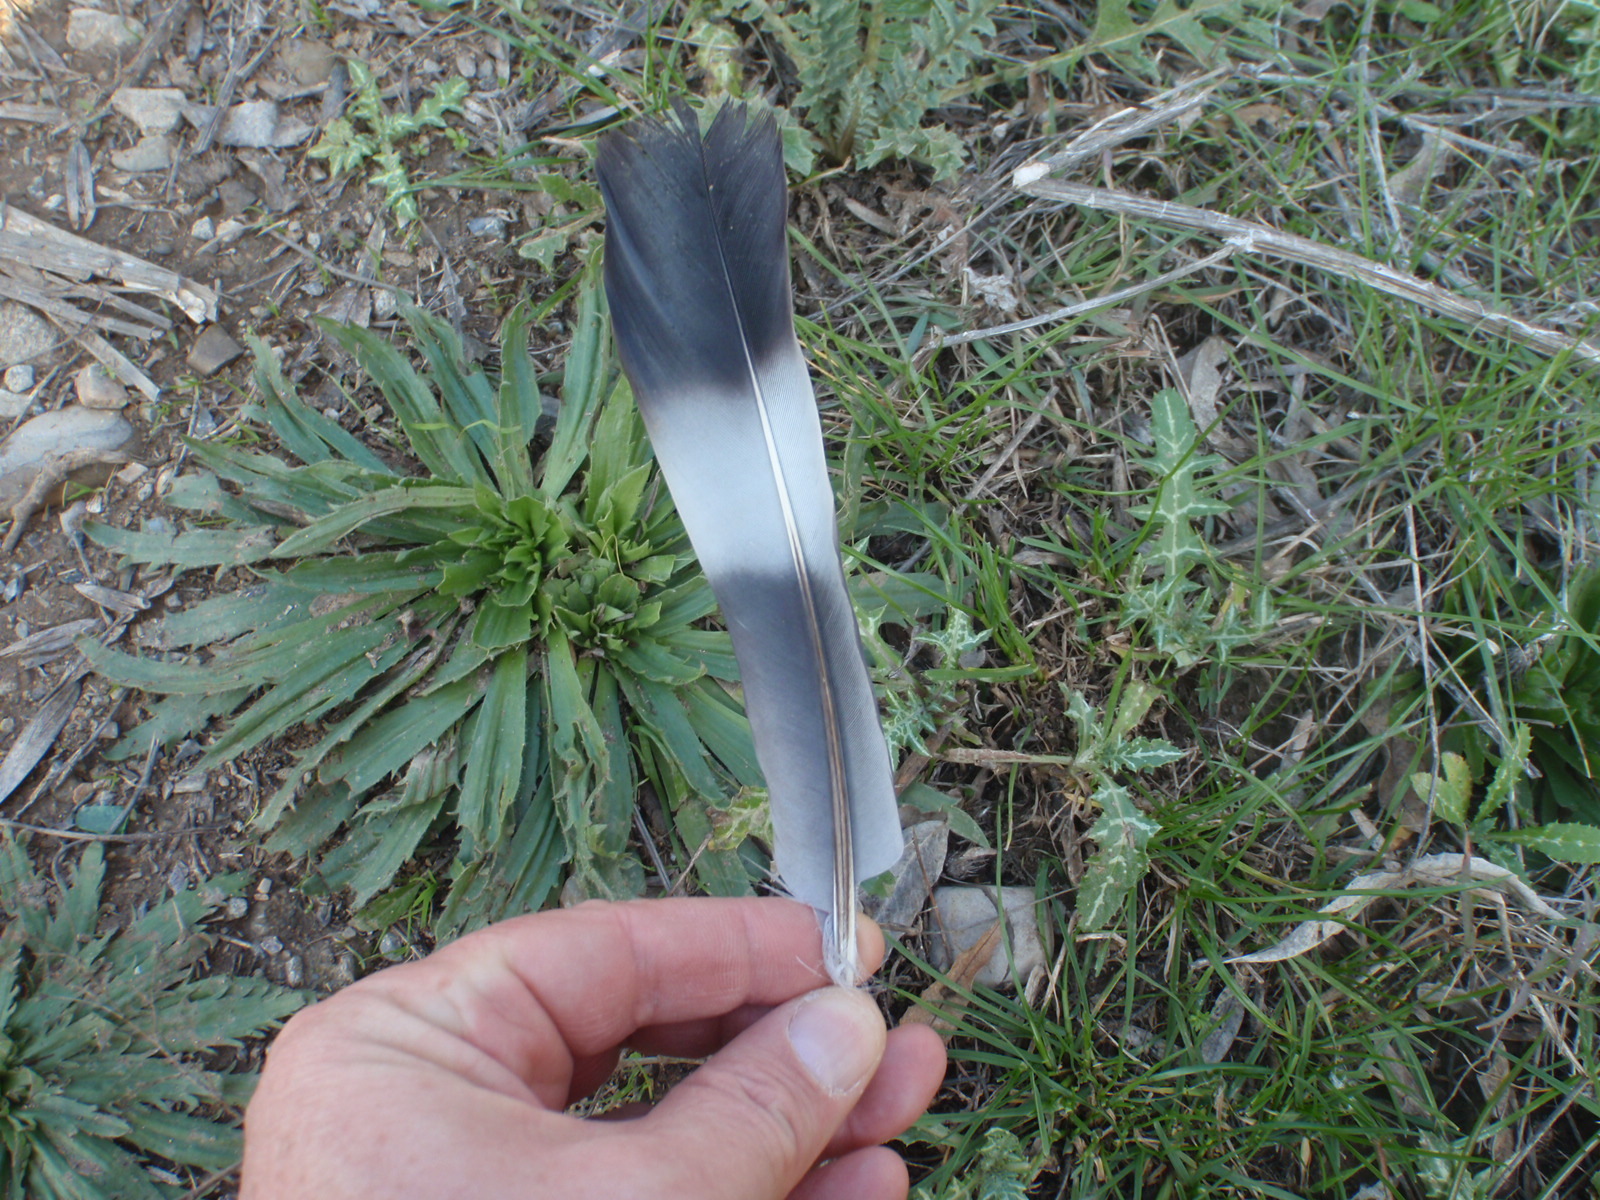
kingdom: Animalia
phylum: Chordata
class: Aves
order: Columbiformes
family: Columbidae
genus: Columba
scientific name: Columba palumbus
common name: Common wood pigeon
